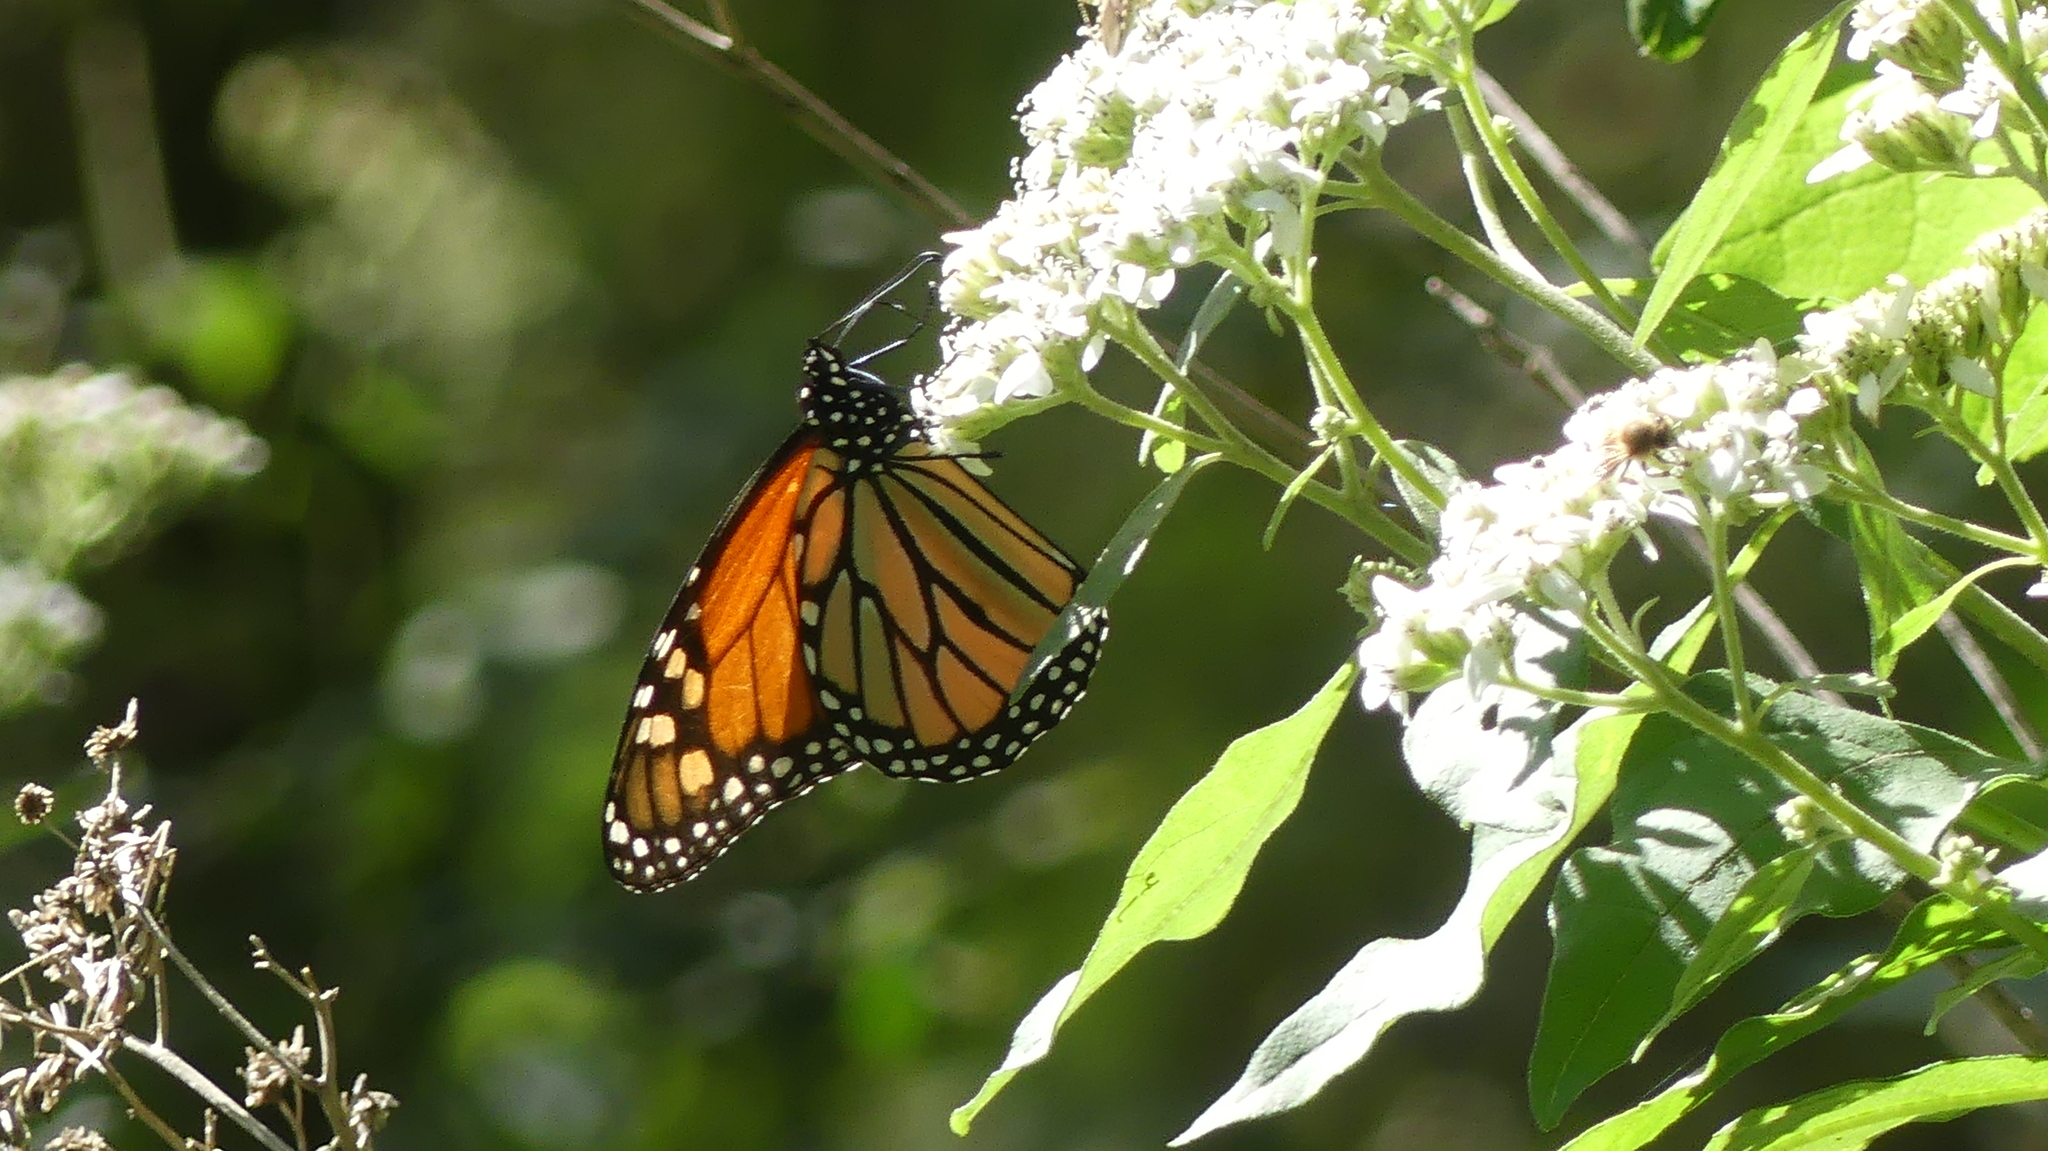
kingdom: Animalia
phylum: Arthropoda
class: Insecta
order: Lepidoptera
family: Nymphalidae
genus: Danaus
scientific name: Danaus plexippus
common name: Monarch
